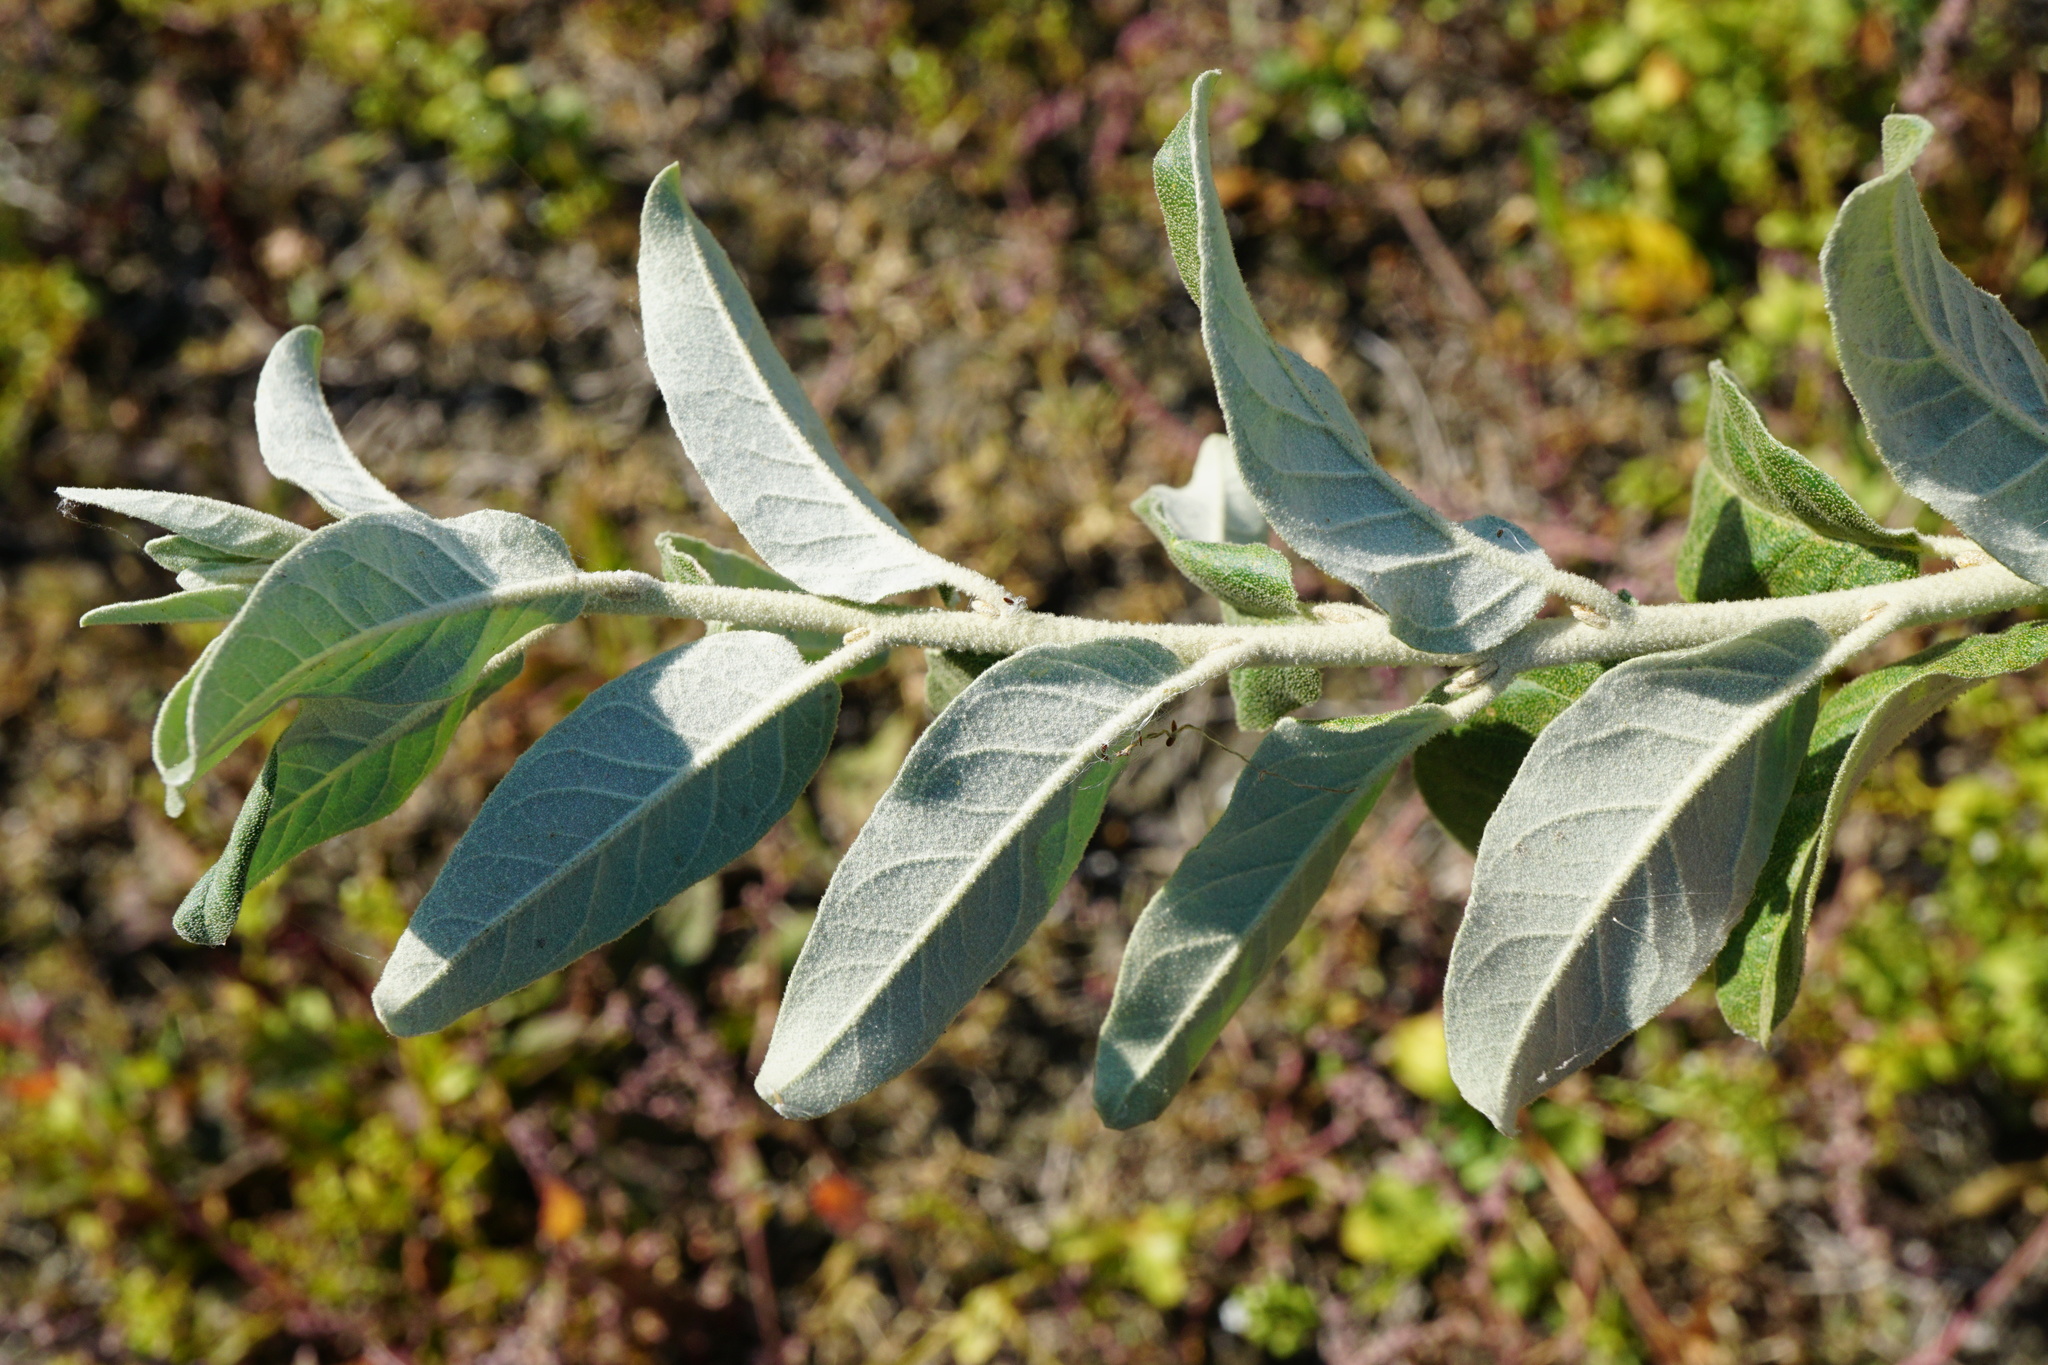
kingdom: Plantae
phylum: Tracheophyta
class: Magnoliopsida
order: Rosales
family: Elaeagnaceae
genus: Elaeagnus
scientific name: Elaeagnus angustifolia
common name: Russian olive
